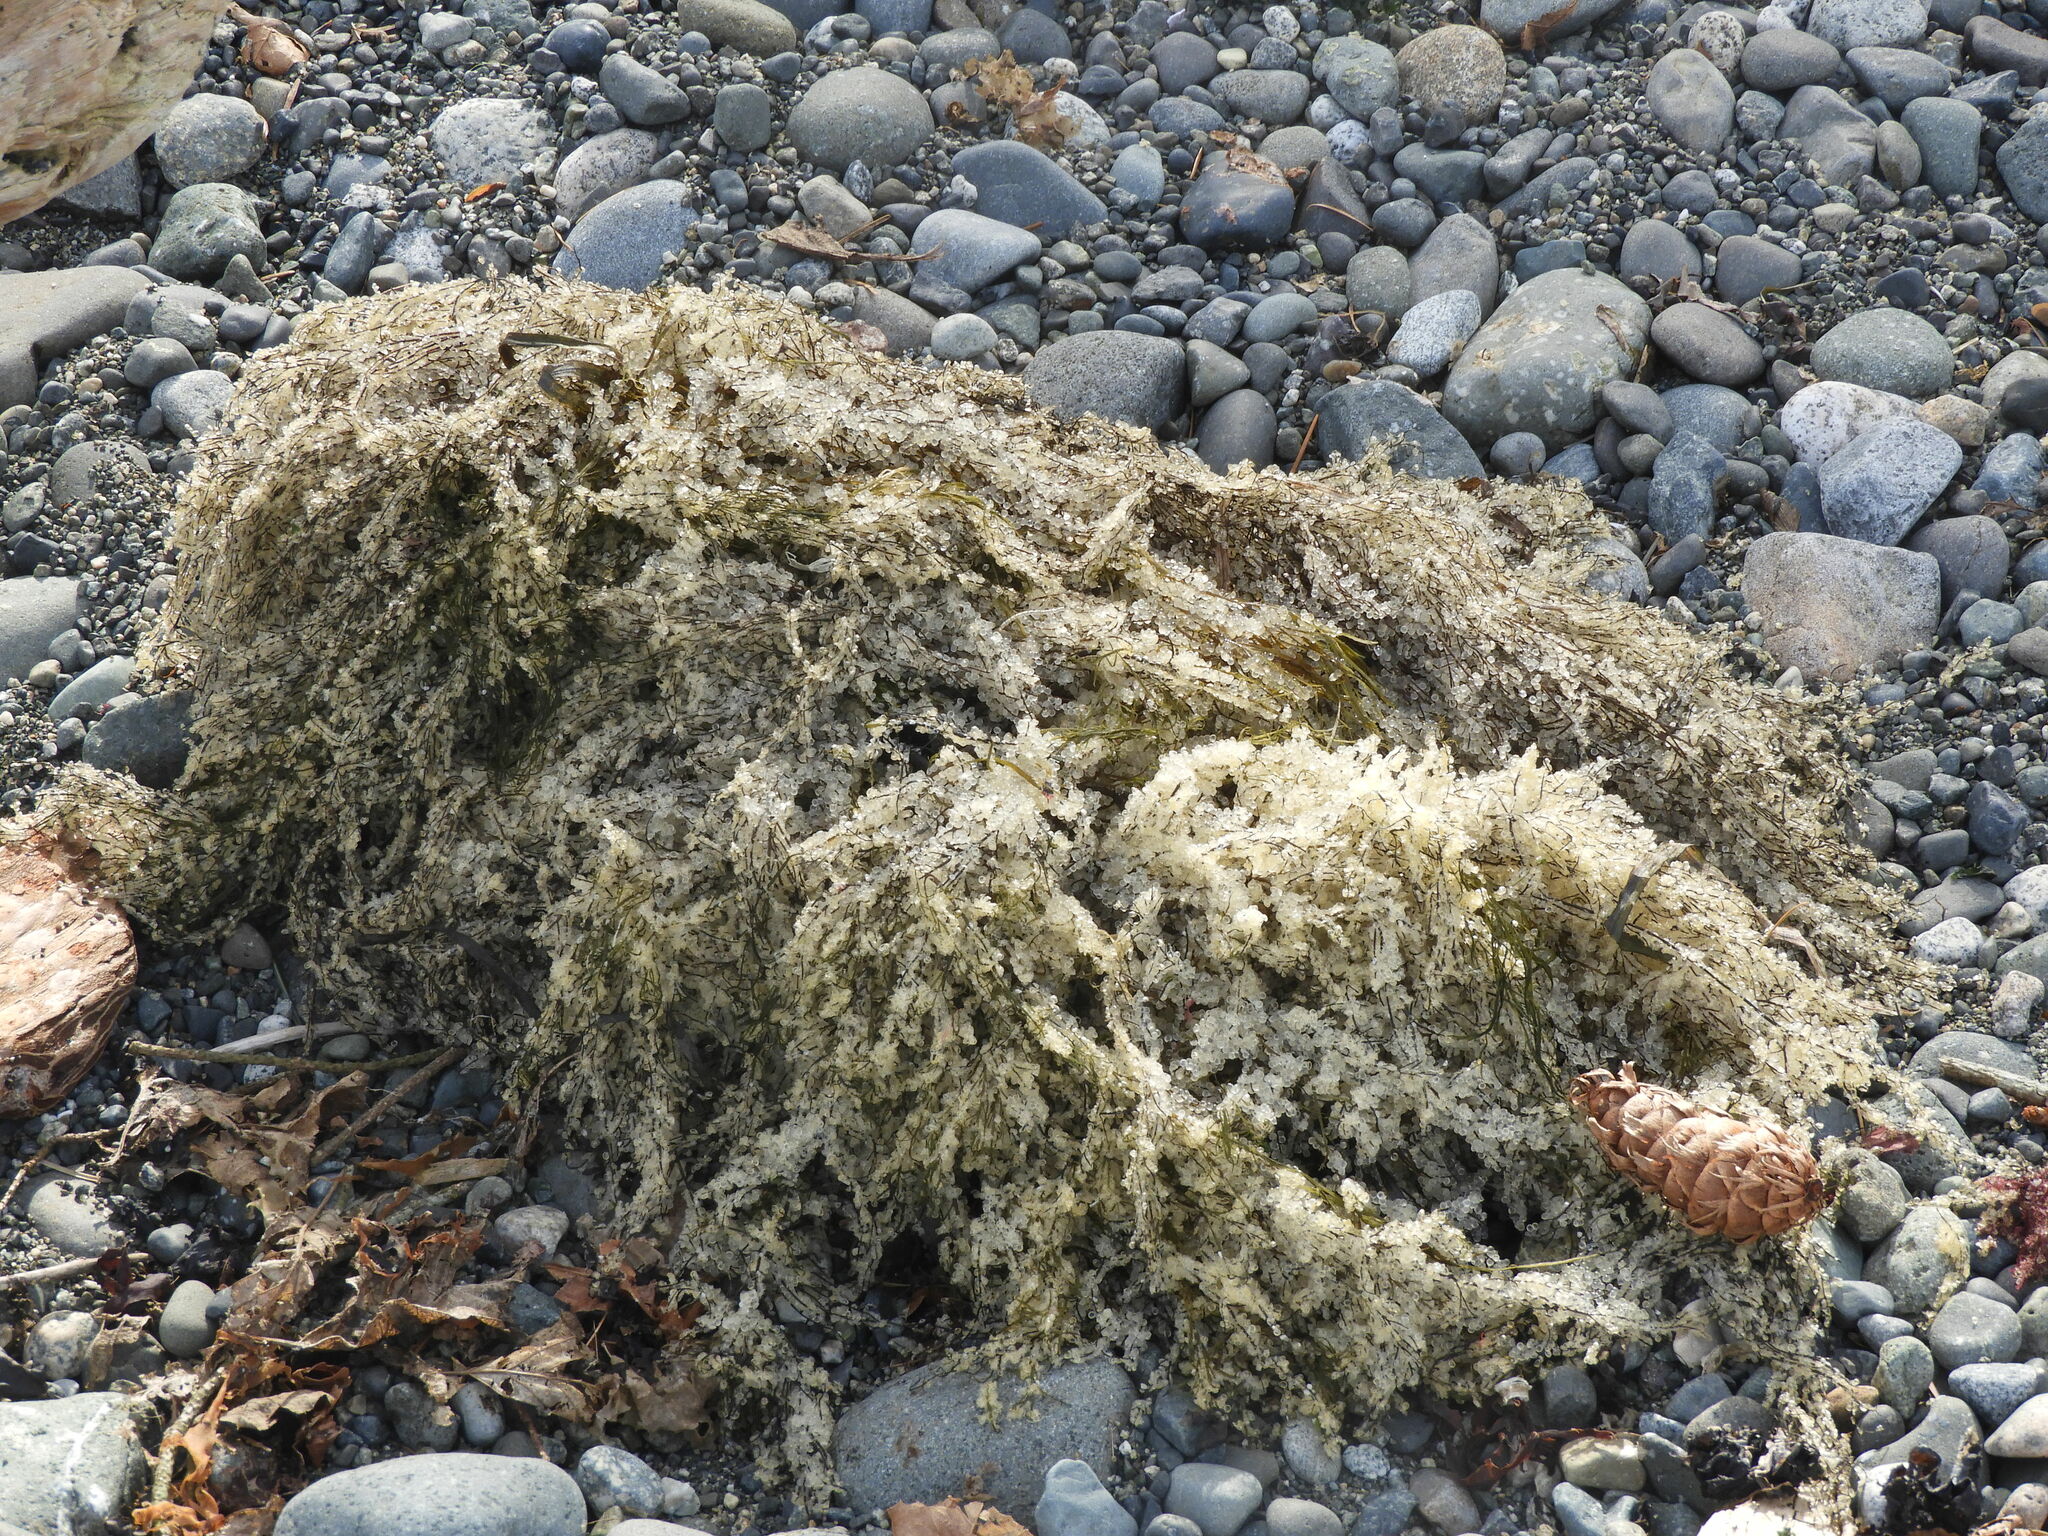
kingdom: Animalia
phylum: Chordata
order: Clupeiformes
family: Clupeidae
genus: Clupea
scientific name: Clupea pallasii
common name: Pacific herring
